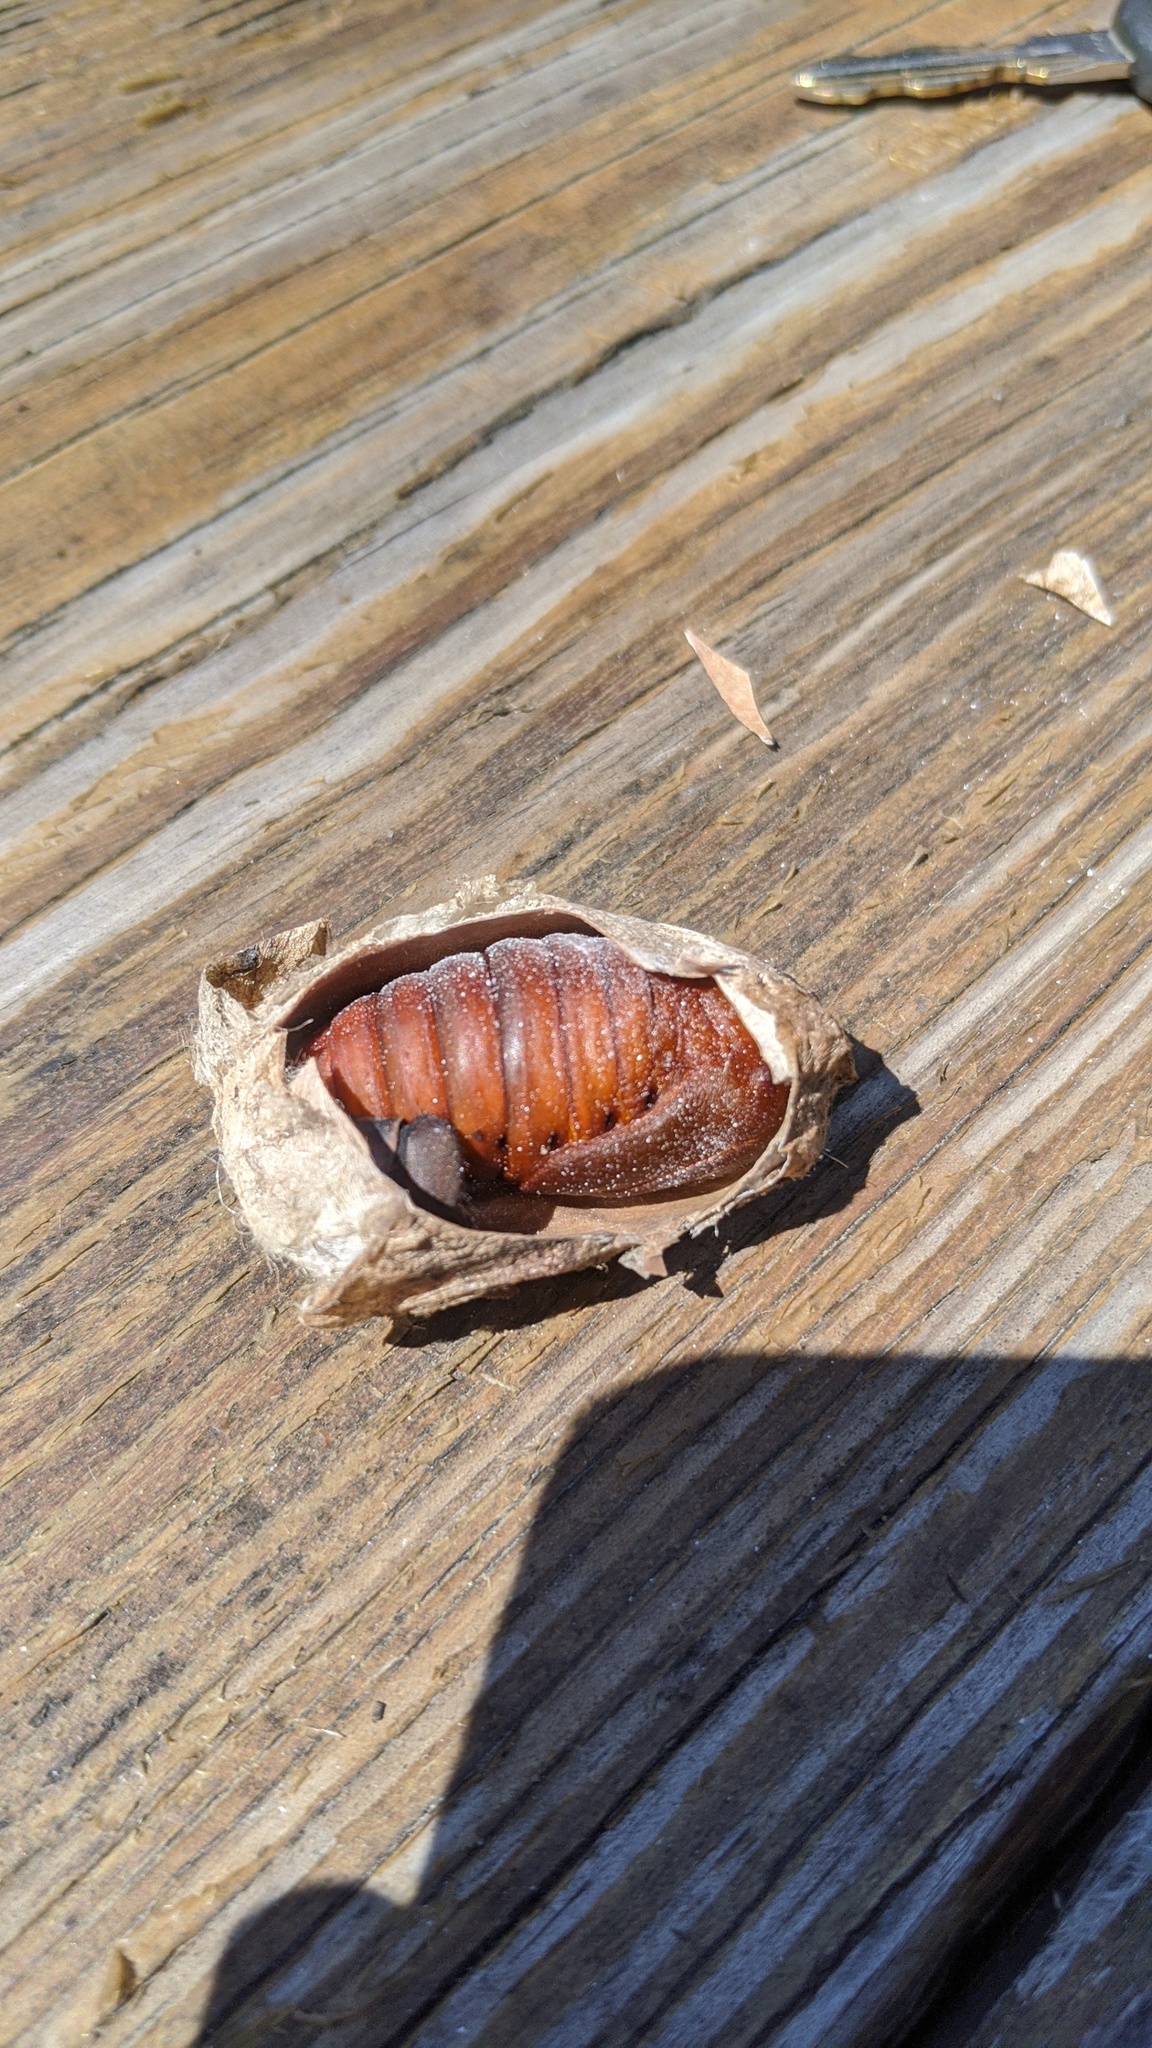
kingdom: Animalia
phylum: Arthropoda
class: Insecta
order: Lepidoptera
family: Saturniidae
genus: Antheraea
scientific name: Antheraea polyphemus
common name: Polyphemus moth
